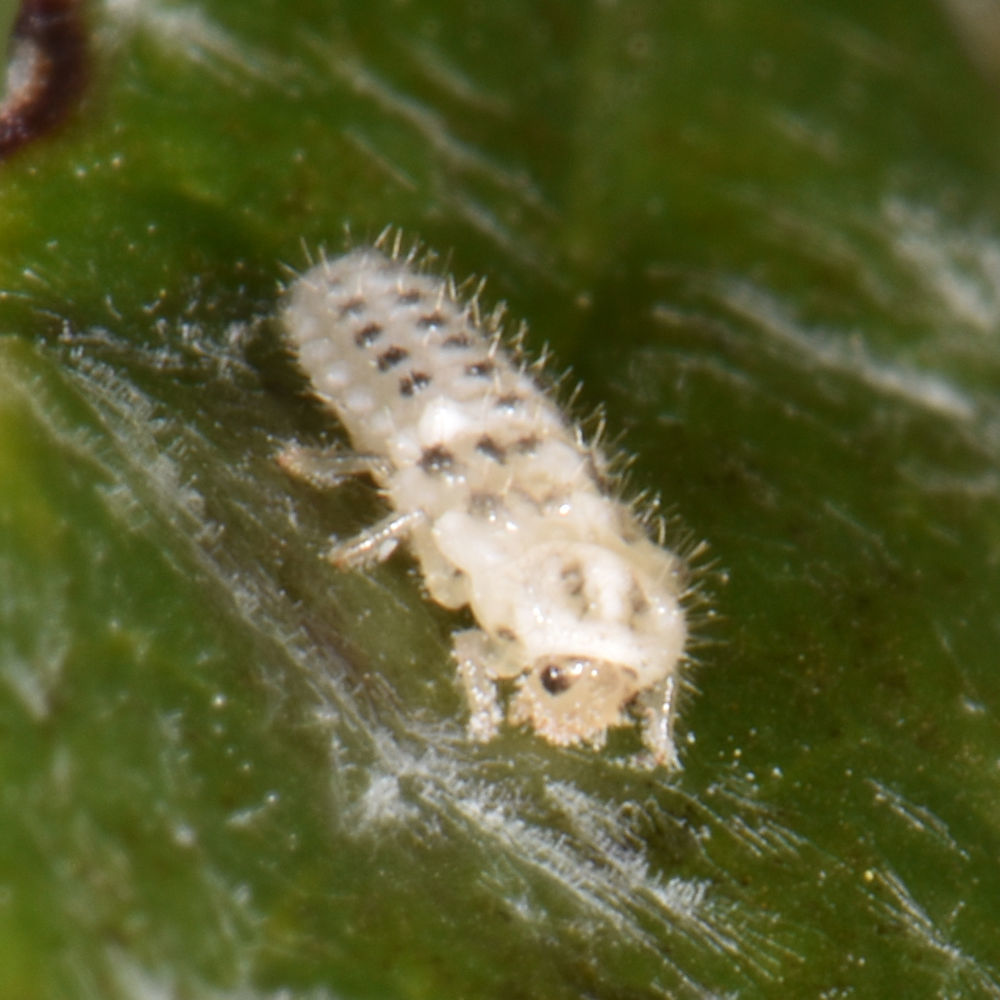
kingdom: Animalia
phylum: Arthropoda
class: Insecta
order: Coleoptera
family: Coccinellidae
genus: Psyllobora
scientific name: Psyllobora vigintimaculata
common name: Ladybird beetle
